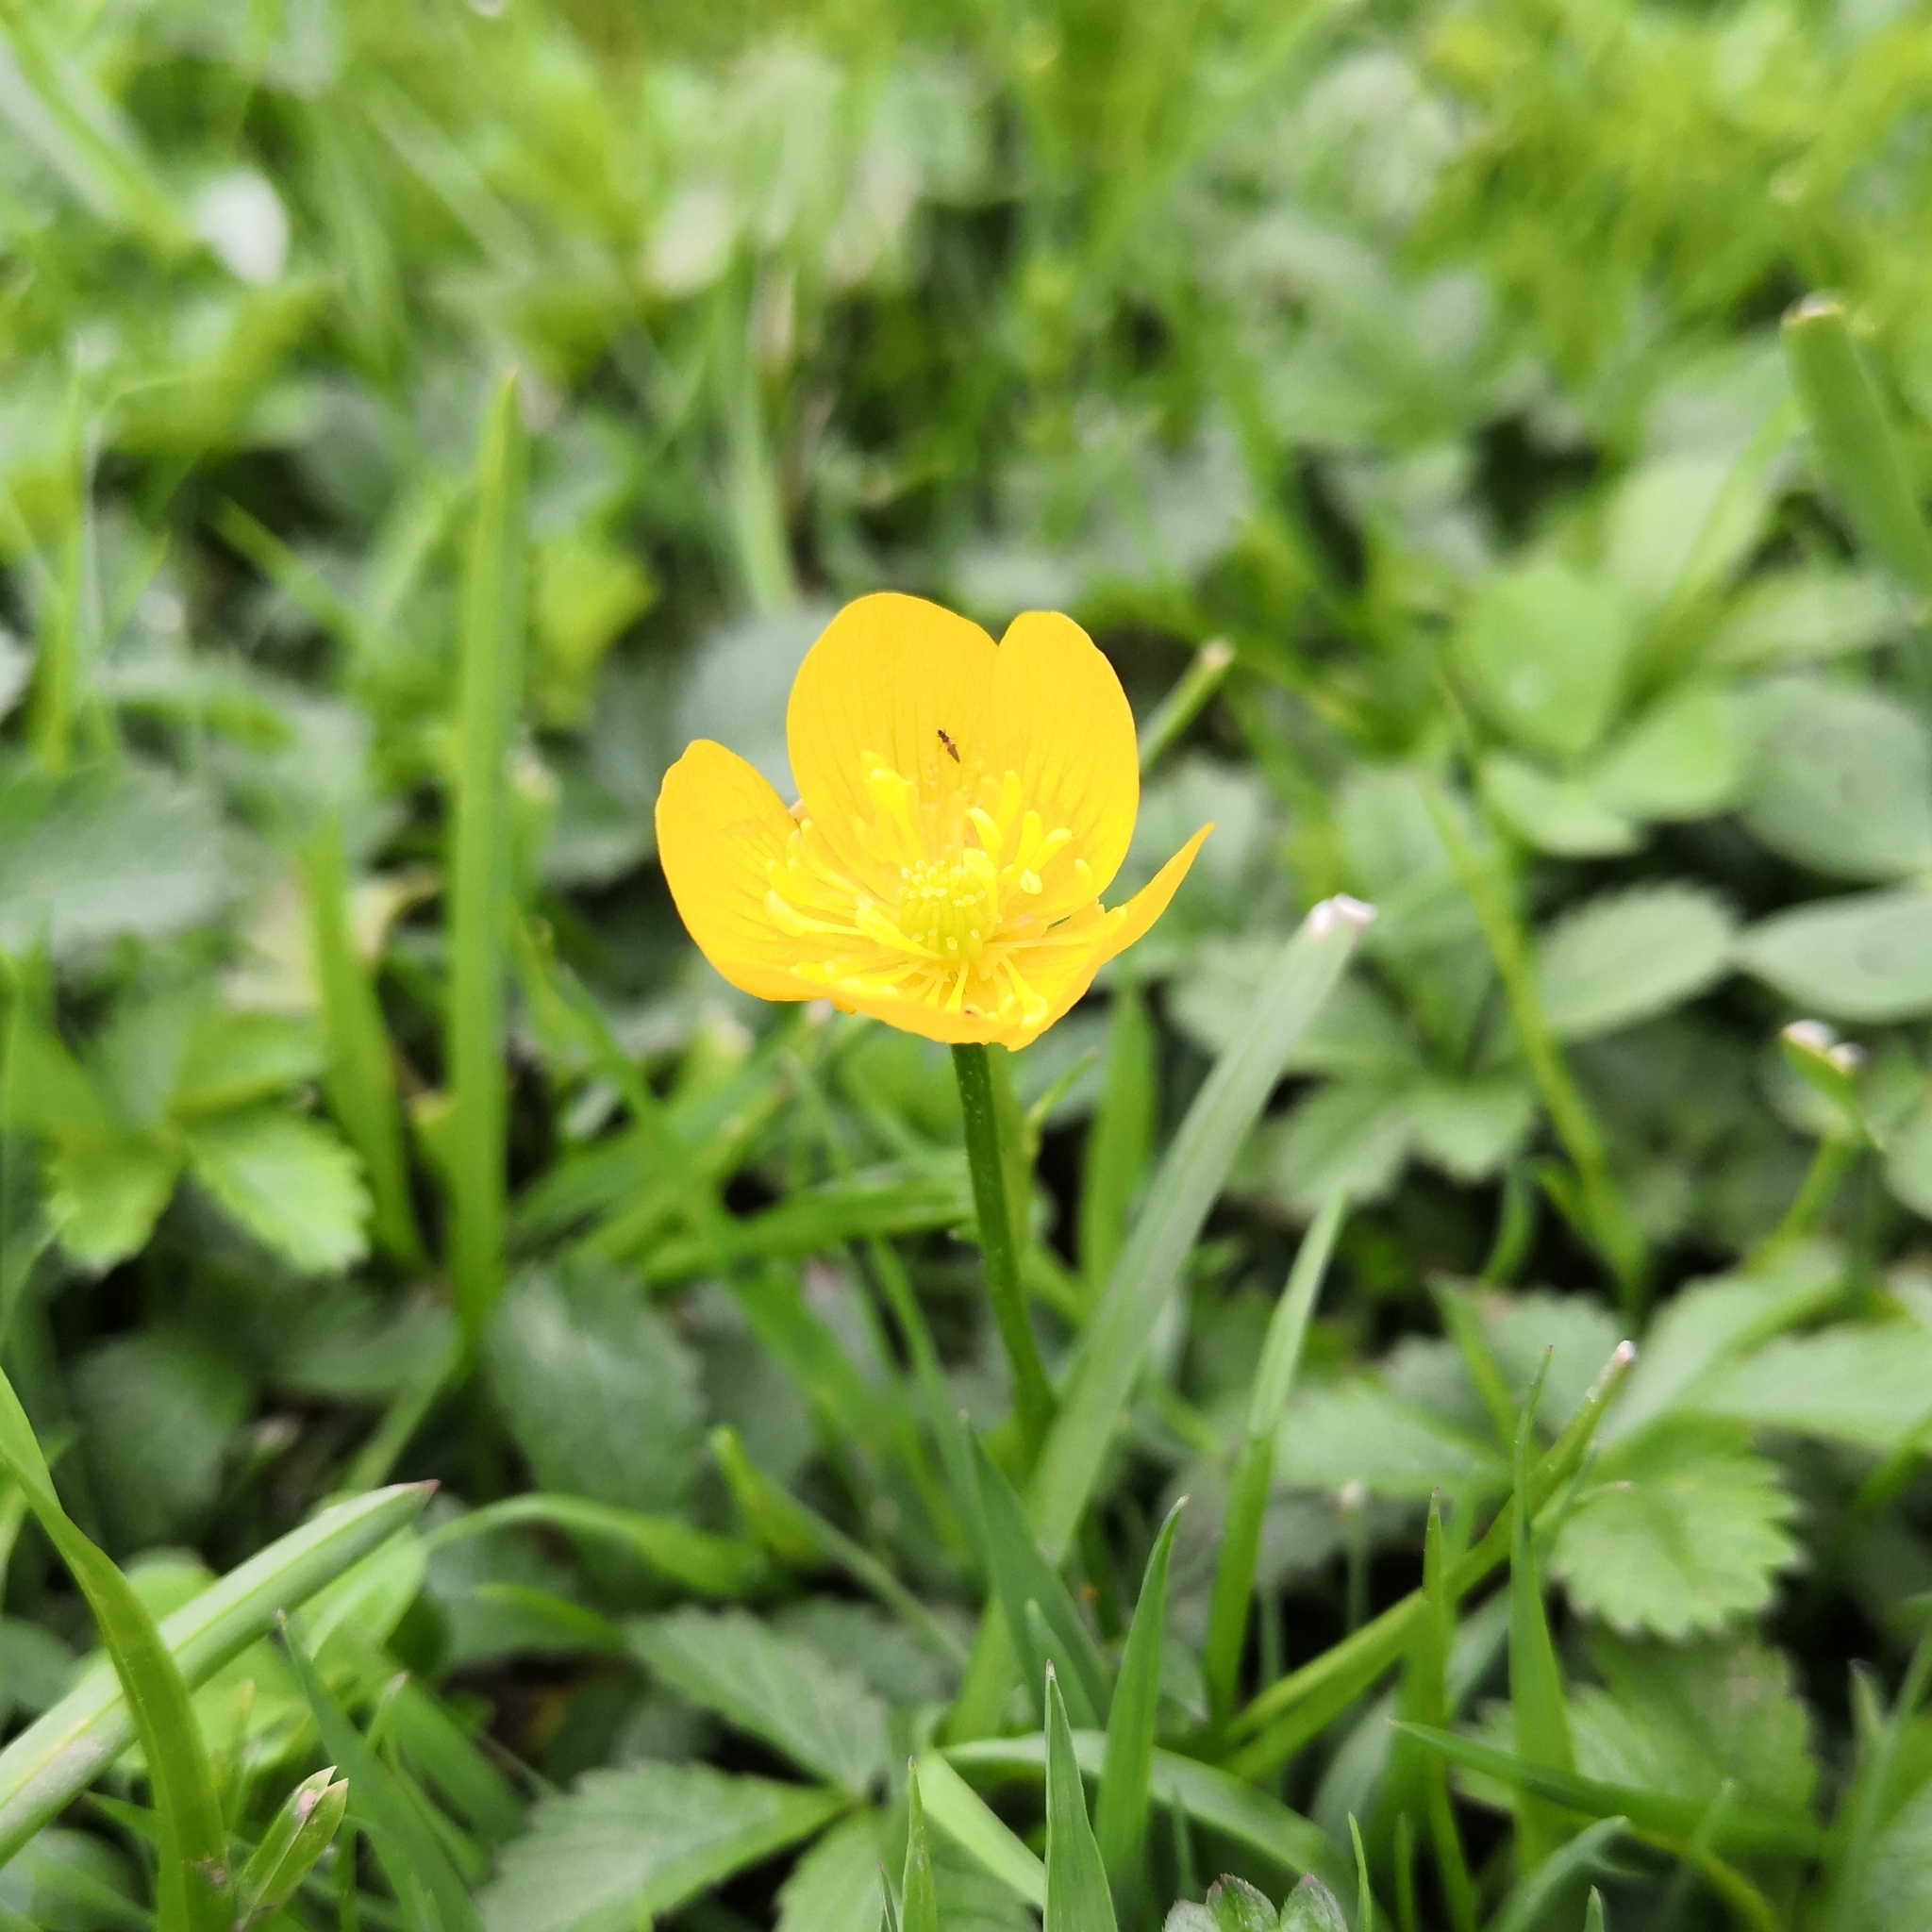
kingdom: Plantae
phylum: Tracheophyta
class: Magnoliopsida
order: Ranunculales
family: Ranunculaceae
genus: Ranunculus
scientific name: Ranunculus repens
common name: Creeping buttercup
